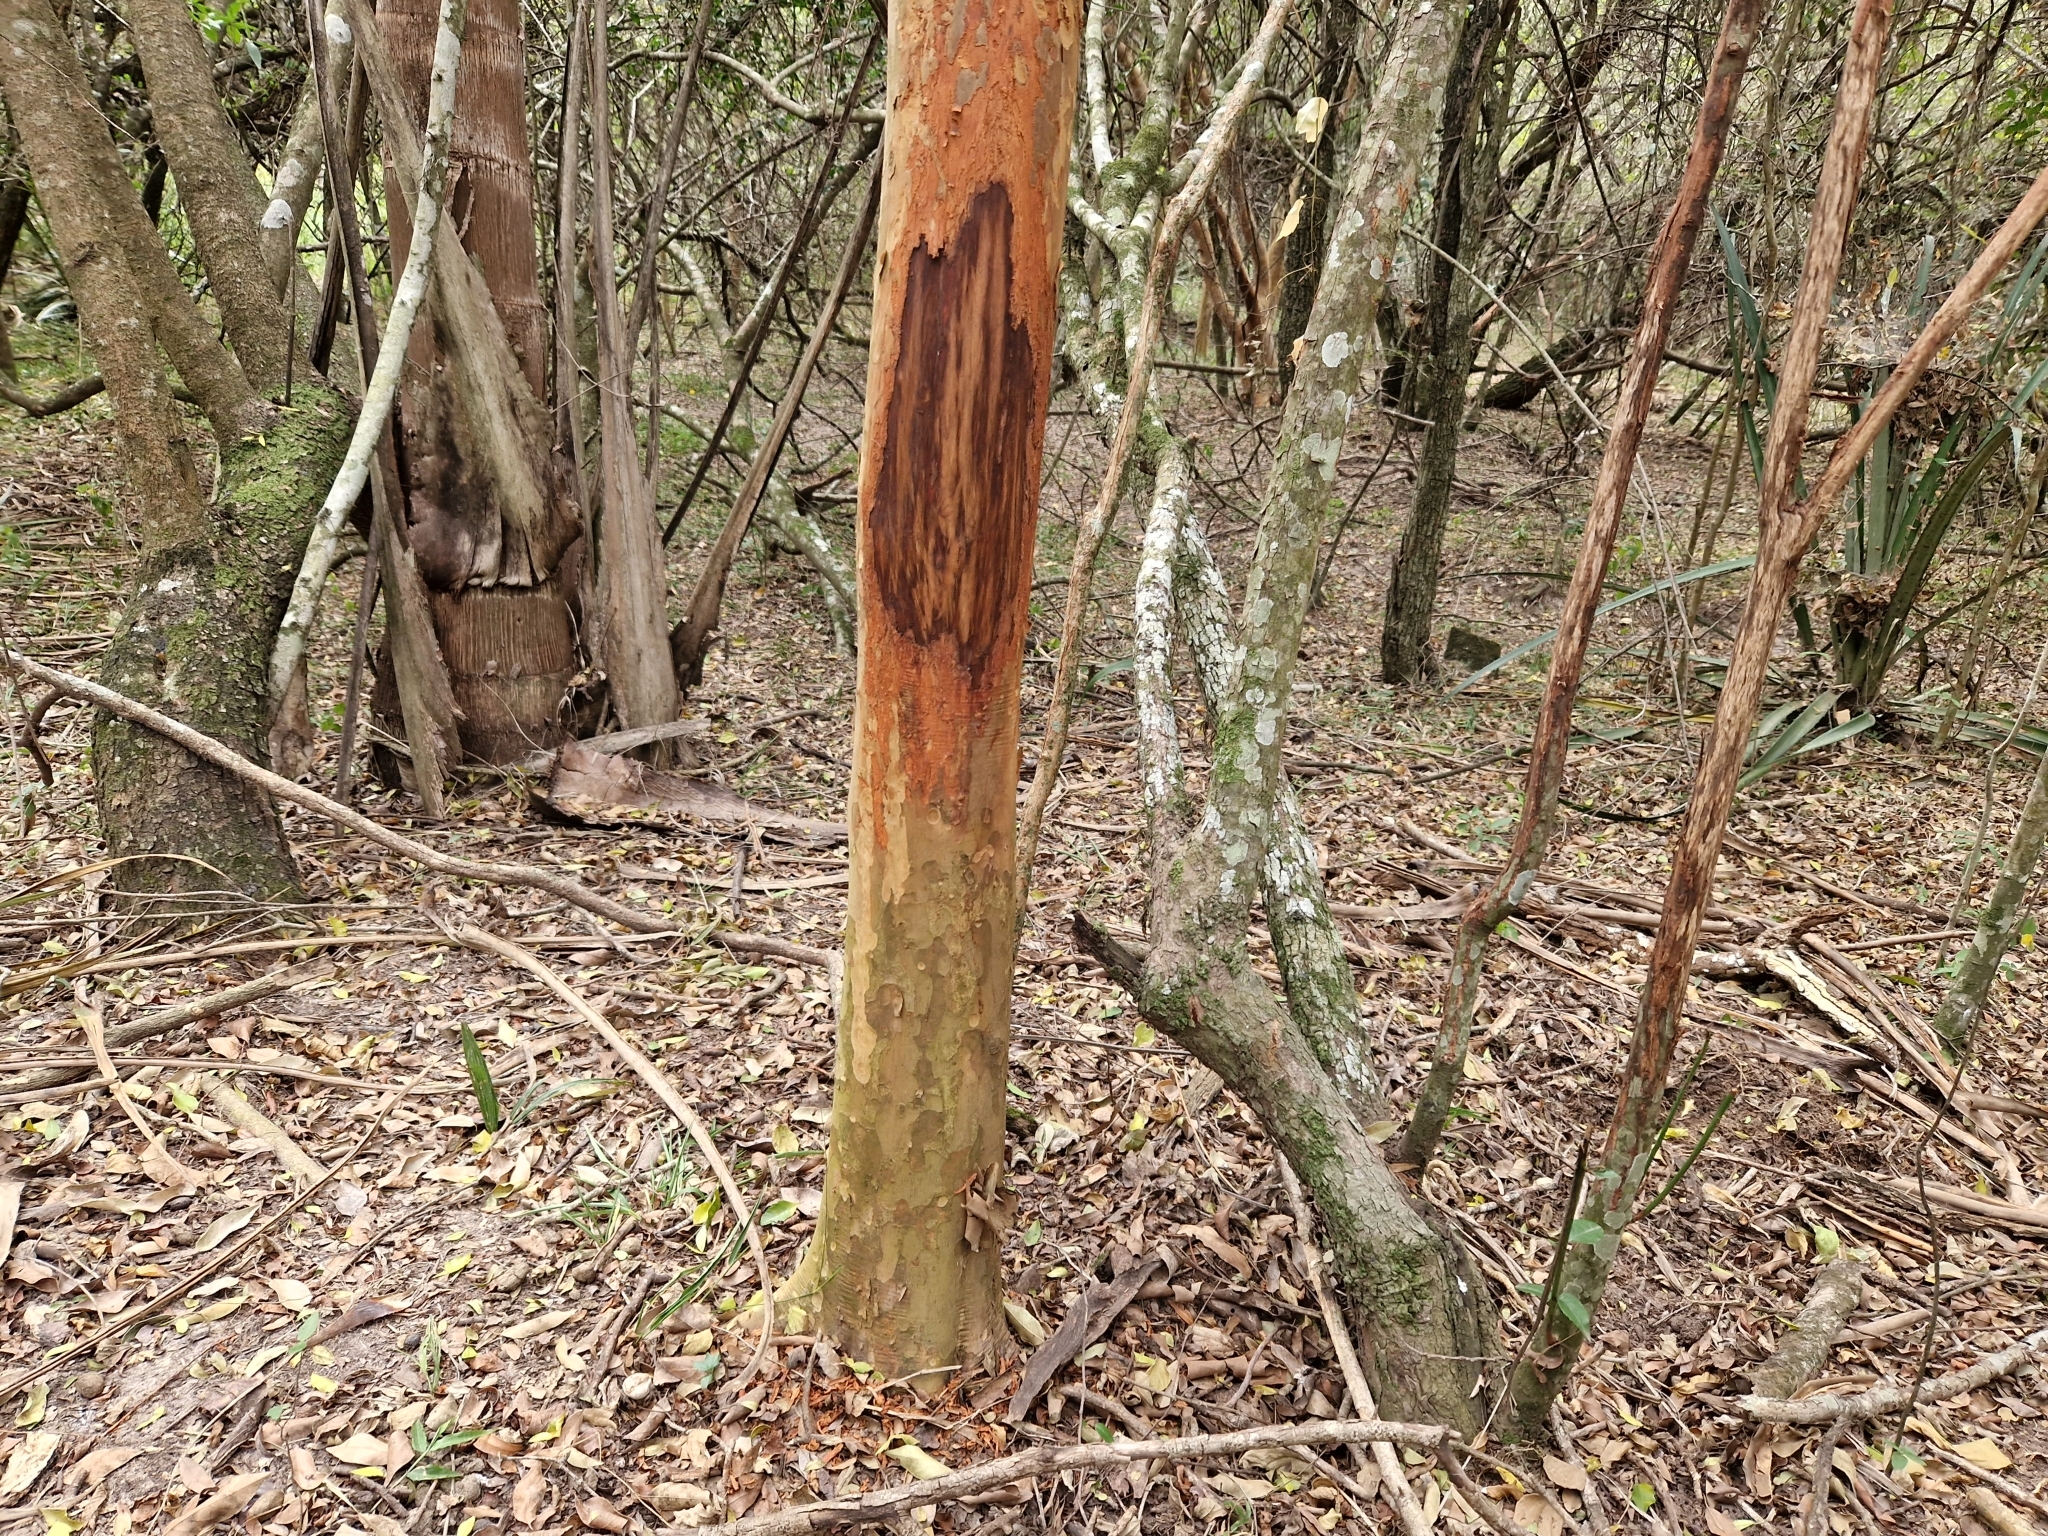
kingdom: Plantae
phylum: Tracheophyta
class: Magnoliopsida
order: Myrtales
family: Myrtaceae
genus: Myrcianthes
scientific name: Myrcianthes cisplatensis
